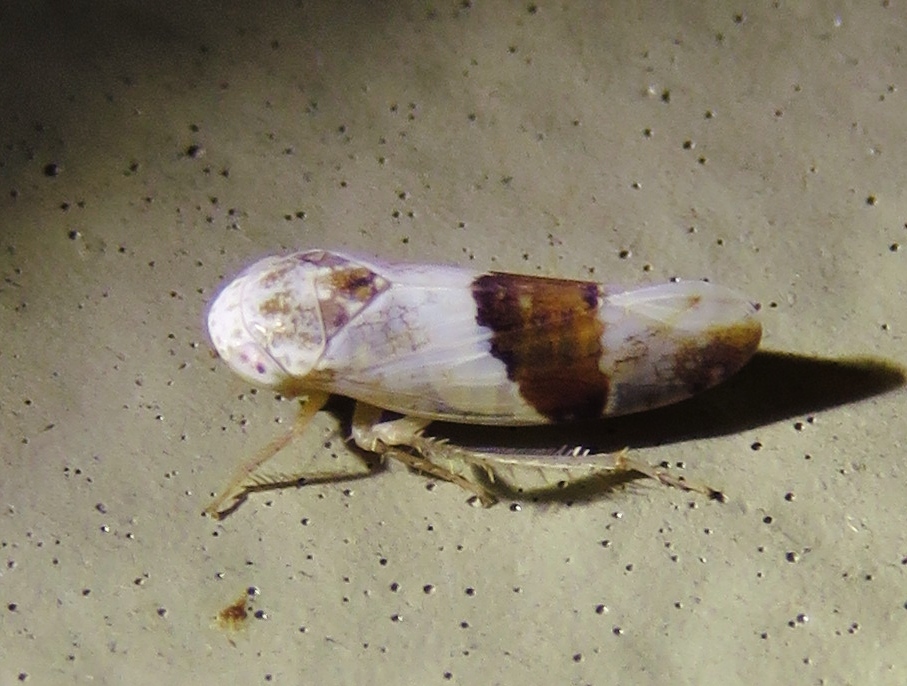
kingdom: Animalia
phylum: Arthropoda
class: Insecta
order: Hemiptera
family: Cicadellidae
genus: Norvellina
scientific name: Norvellina seminuda
